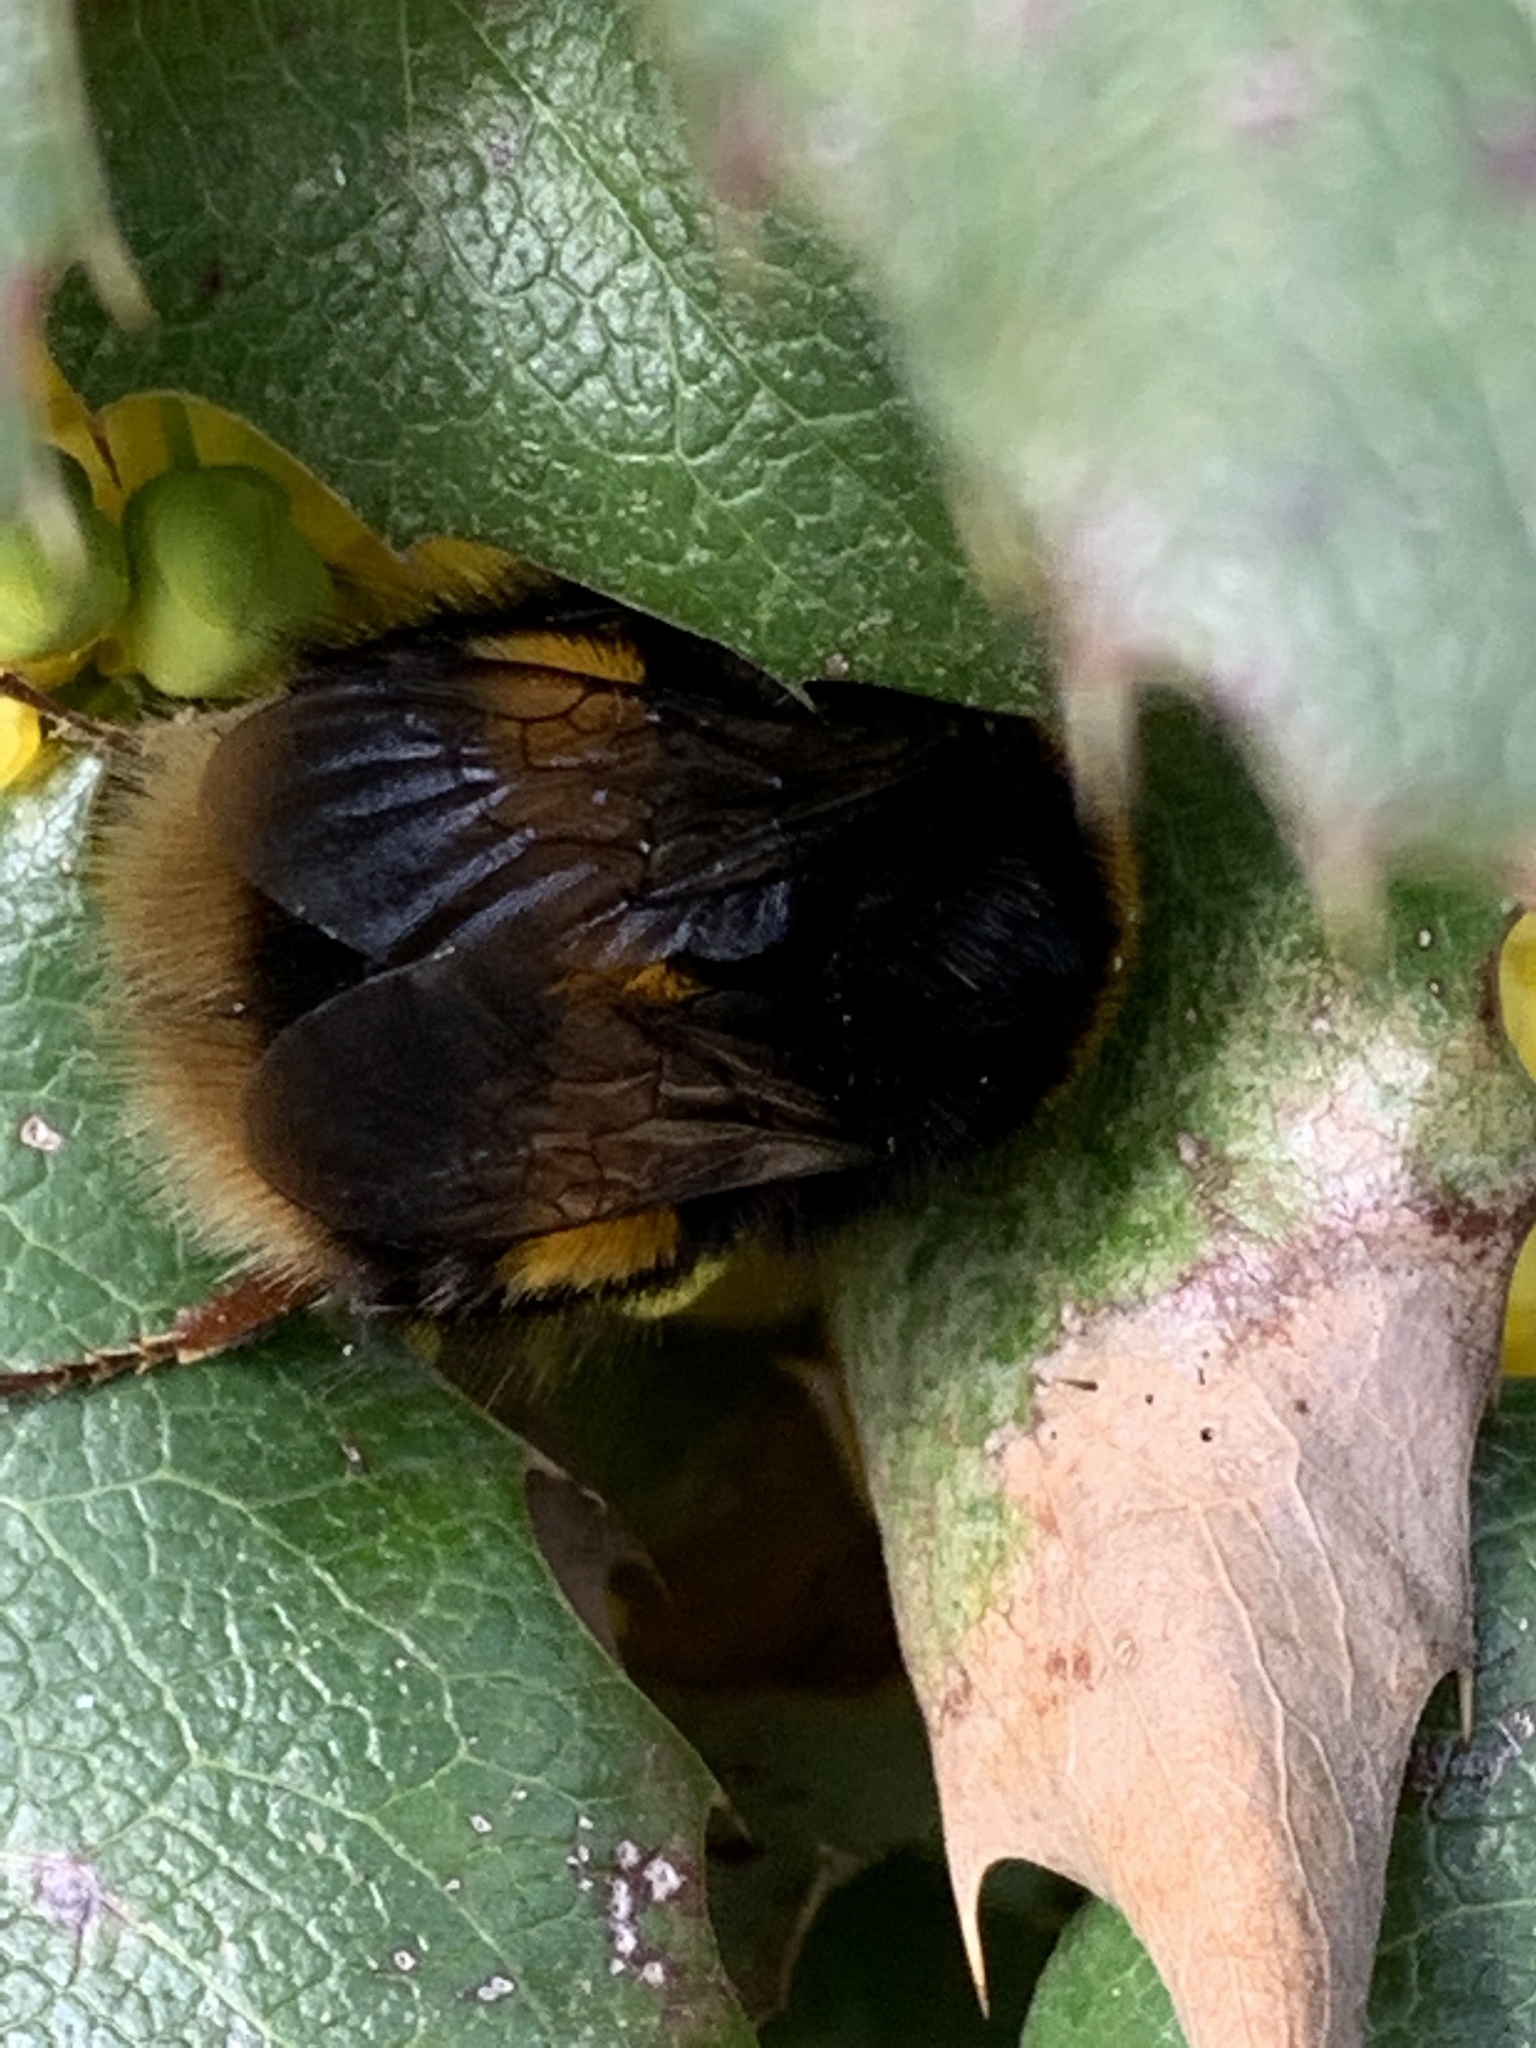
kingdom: Animalia
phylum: Arthropoda
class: Insecta
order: Hymenoptera
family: Apidae
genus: Bombus
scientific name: Bombus terrestris
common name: Buff-tailed bumblebee
